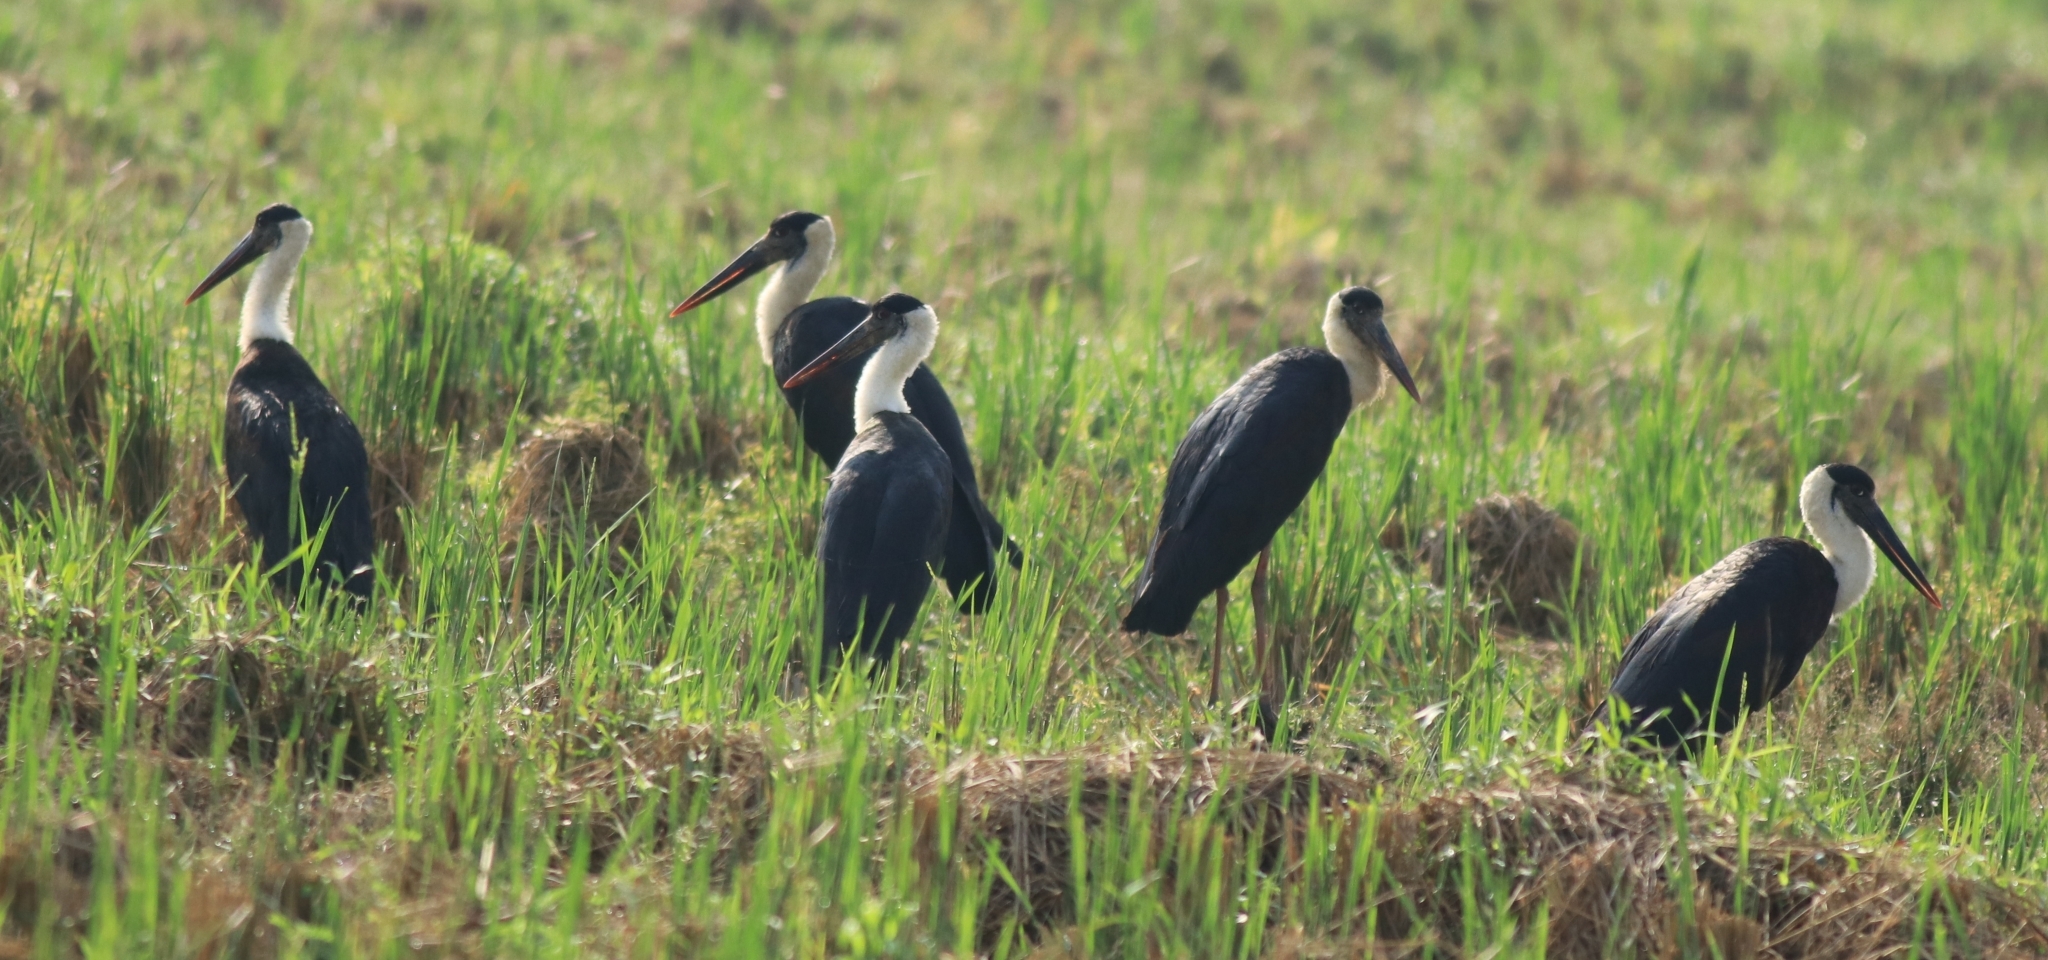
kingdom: Animalia
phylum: Chordata
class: Aves
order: Ciconiiformes
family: Ciconiidae
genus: Ciconia
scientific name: Ciconia episcopus
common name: Woolly-necked stork
